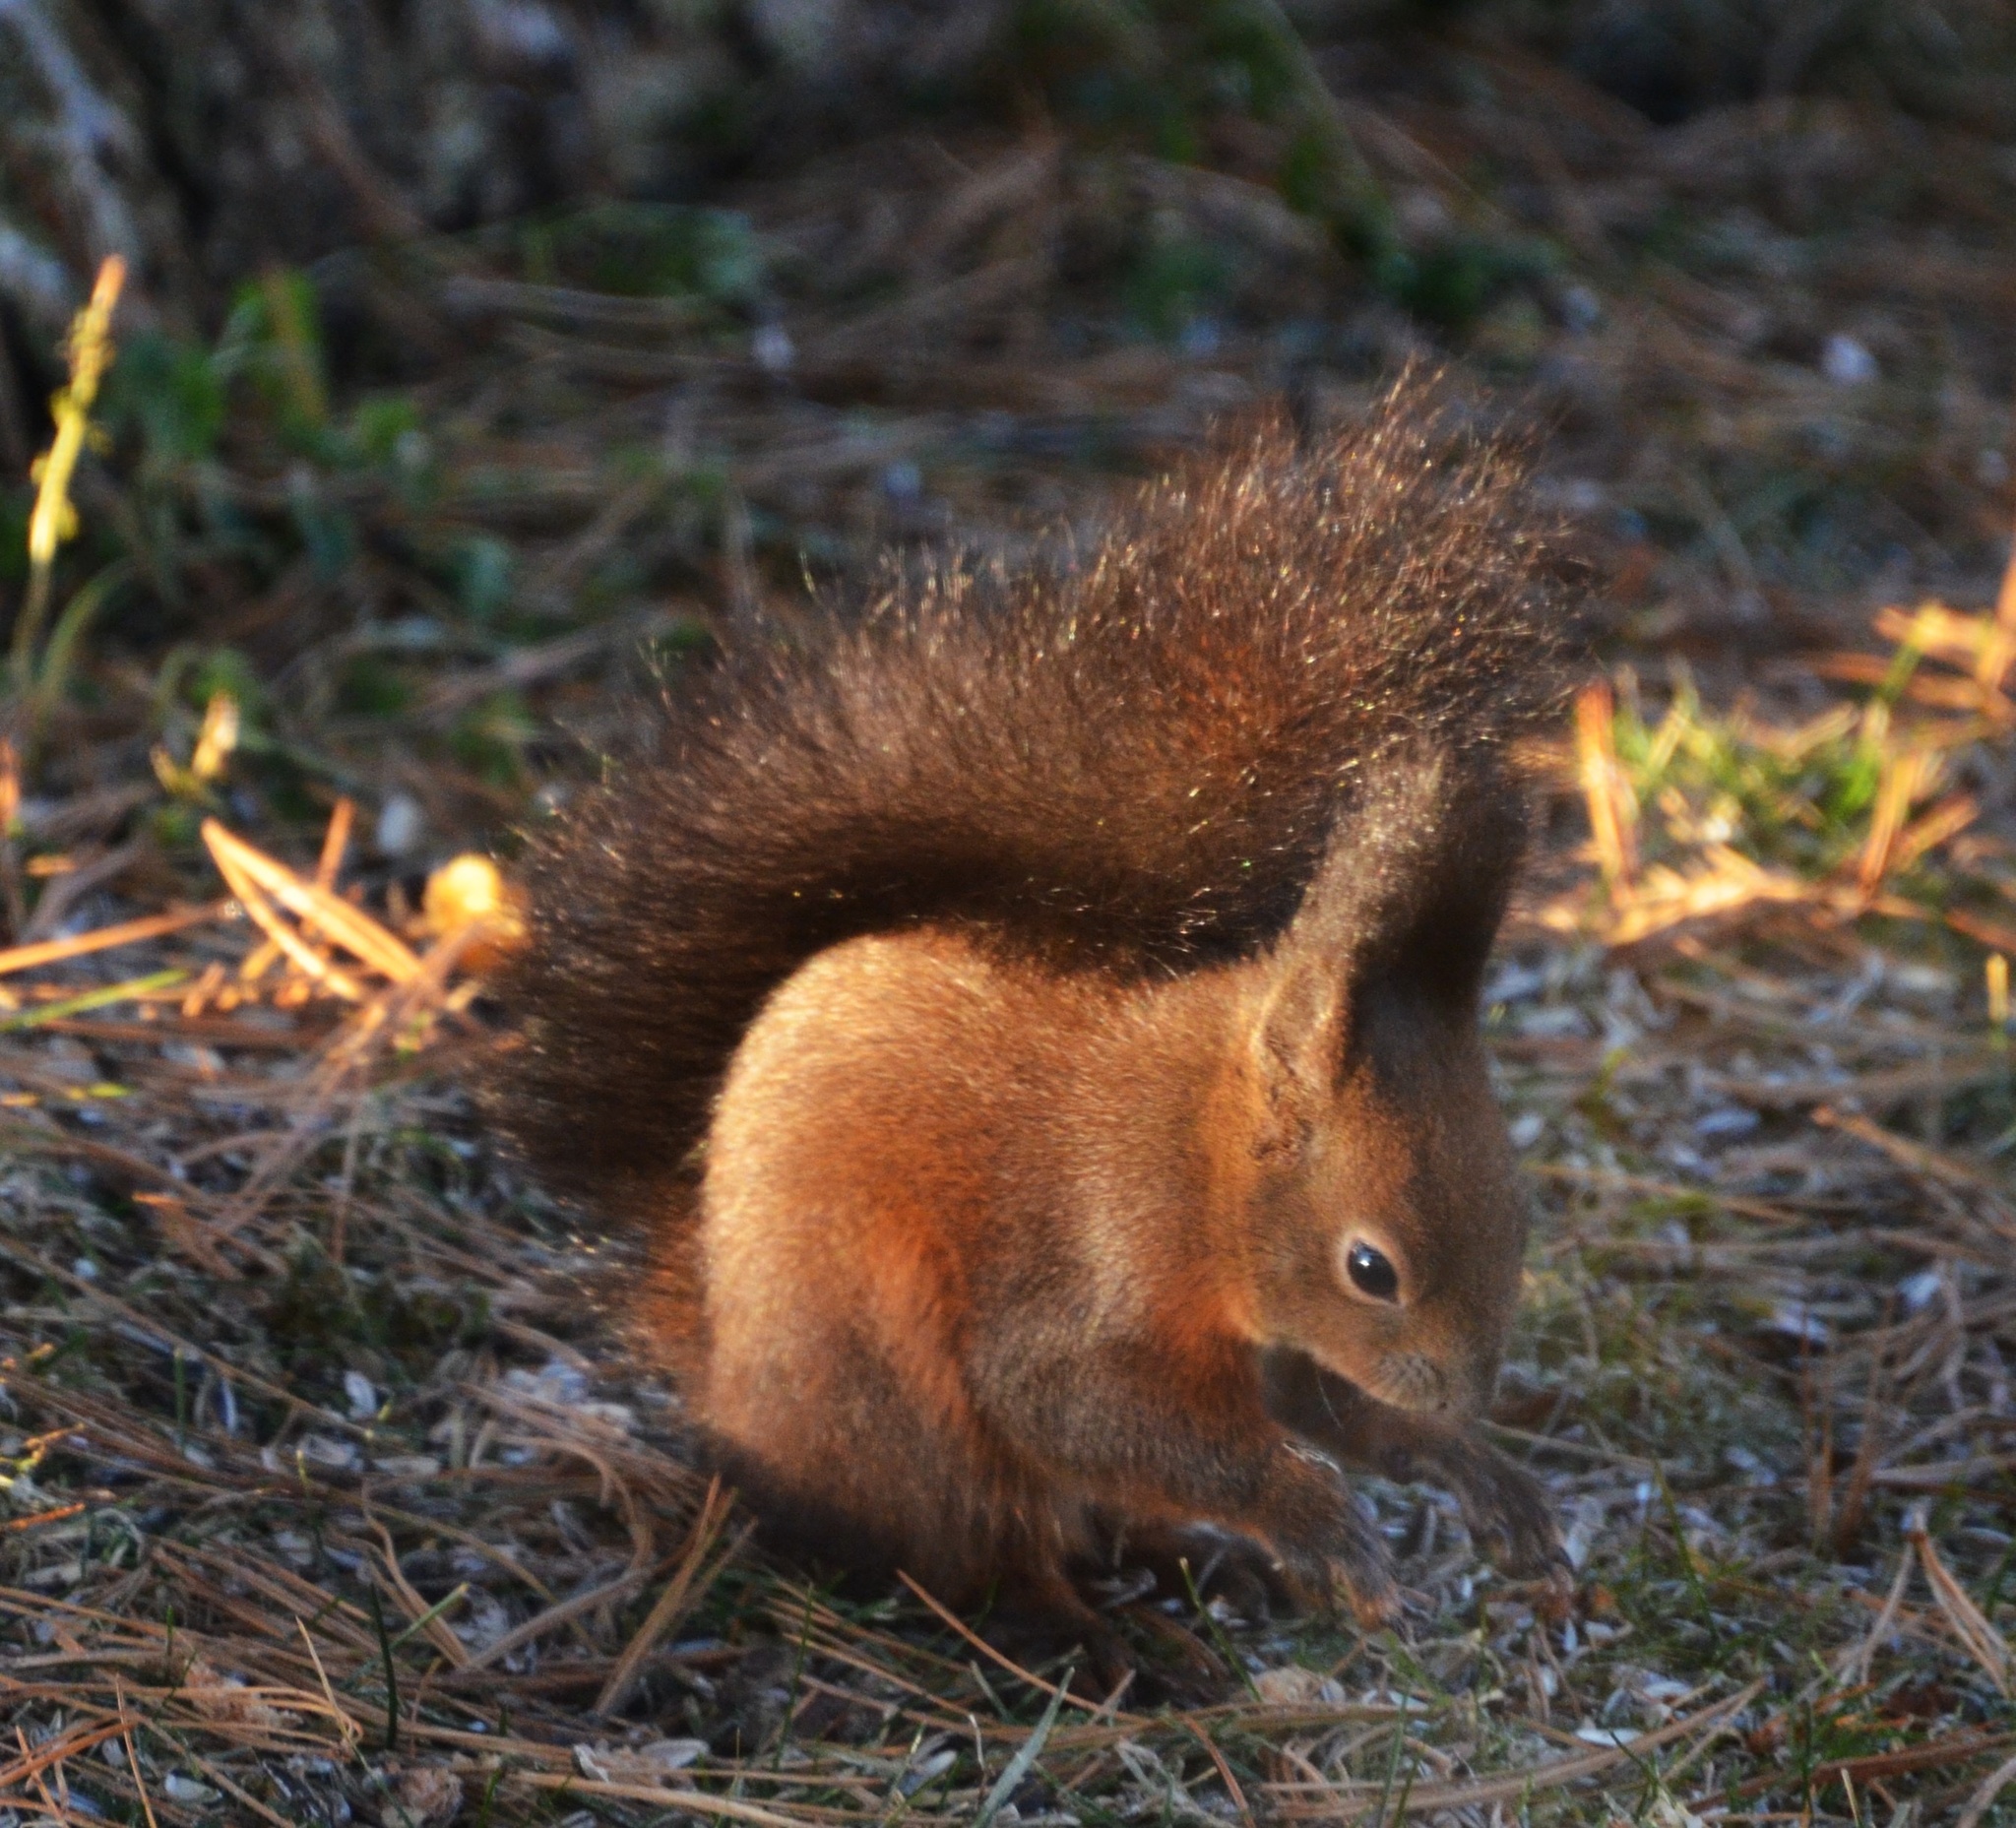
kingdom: Animalia
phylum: Chordata
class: Mammalia
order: Rodentia
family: Sciuridae
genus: Sciurus
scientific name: Sciurus vulgaris
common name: Eurasian red squirrel
